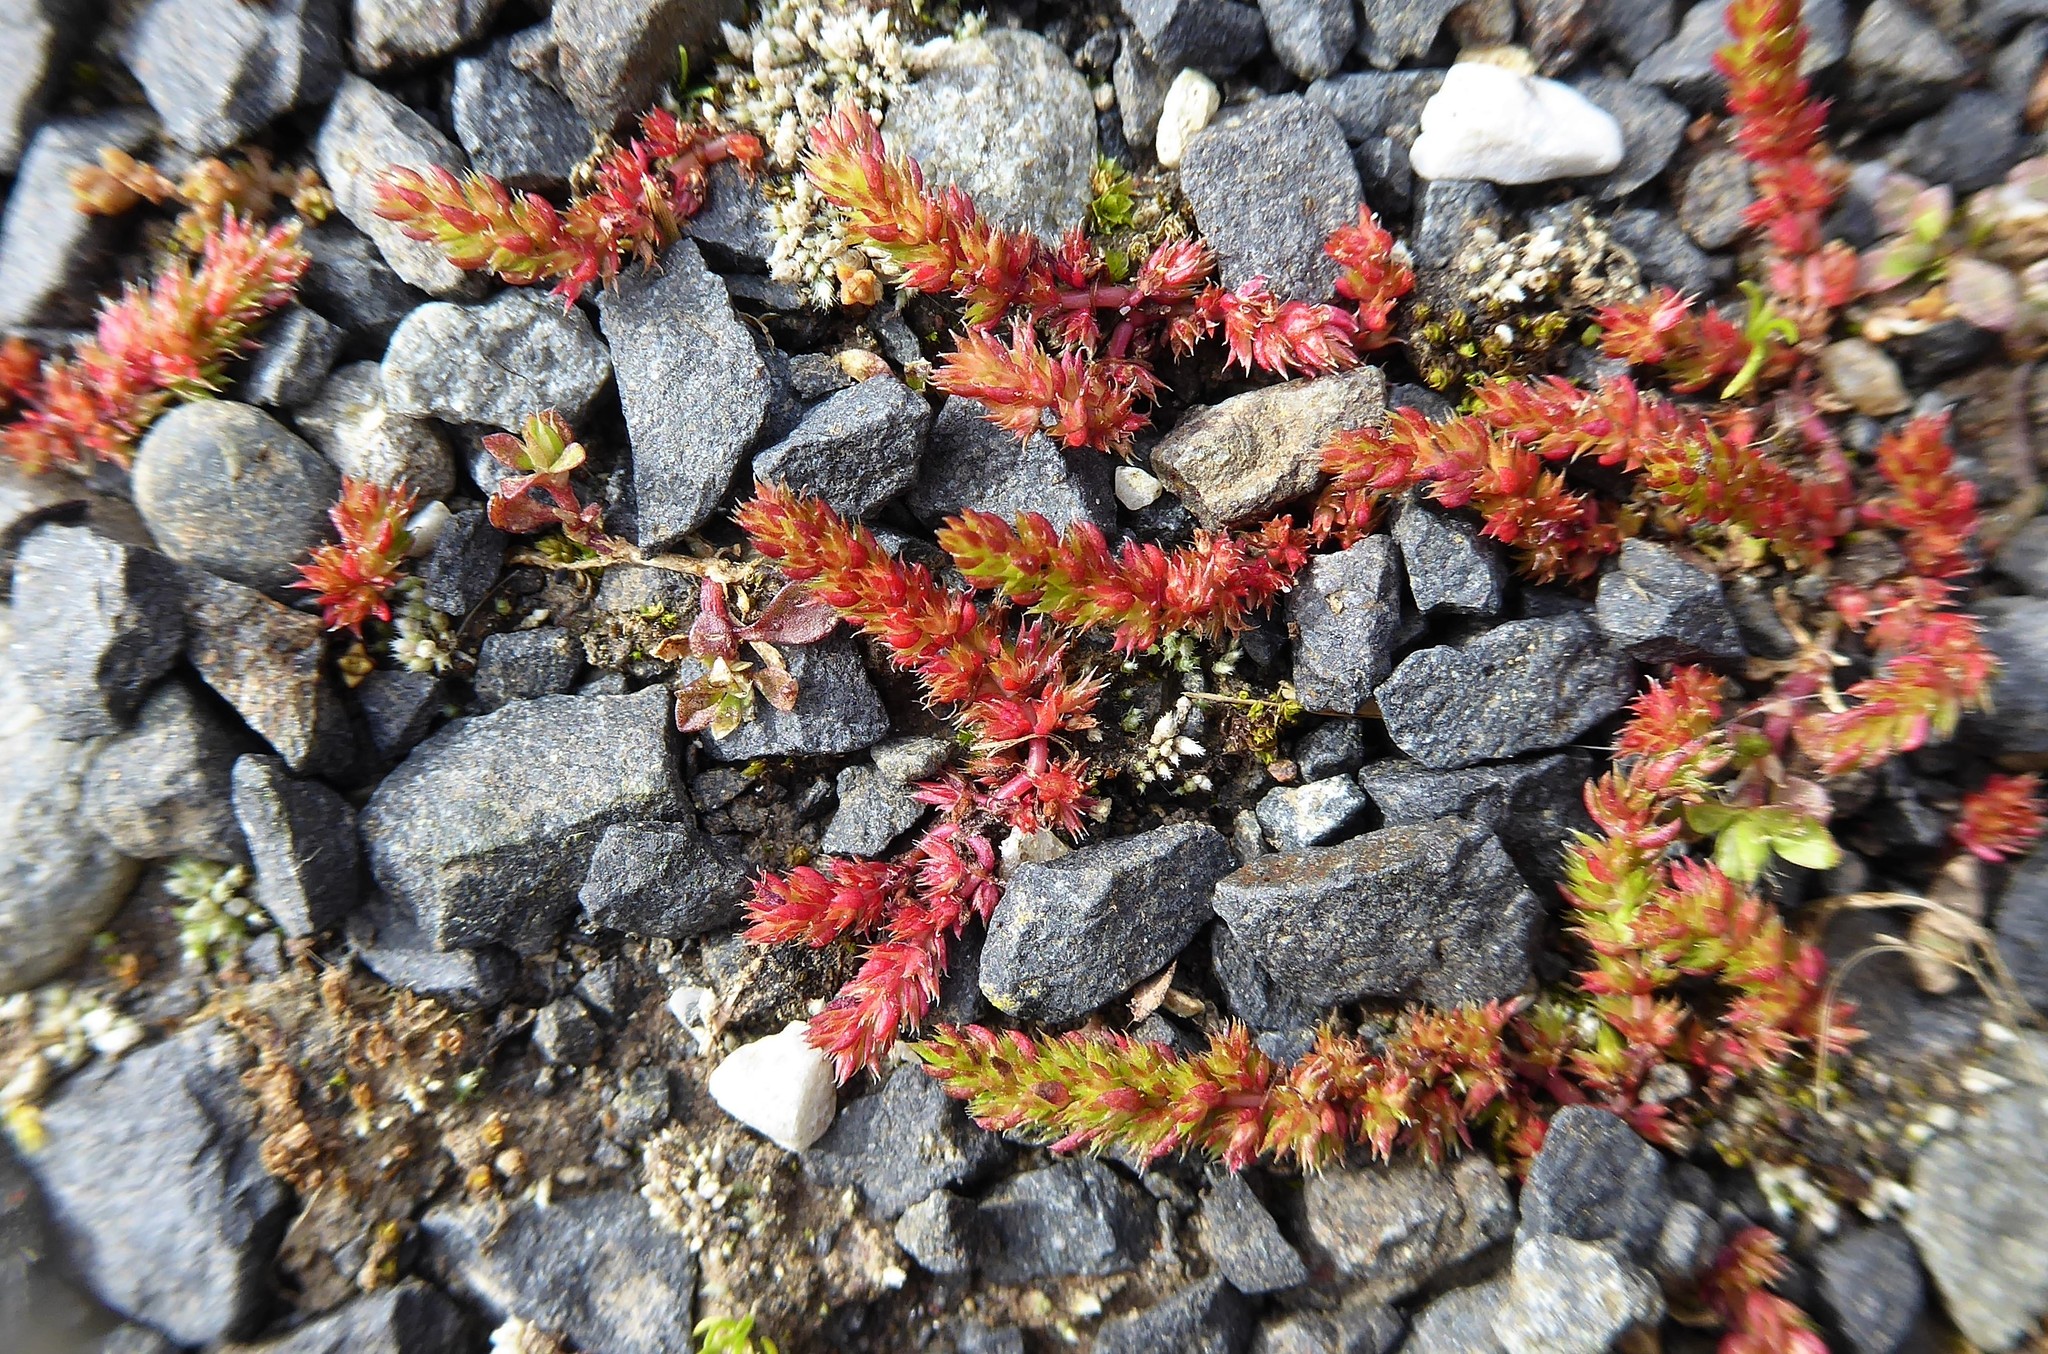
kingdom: Plantae
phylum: Tracheophyta
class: Magnoliopsida
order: Saxifragales
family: Crassulaceae
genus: Crassula
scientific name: Crassula alata
